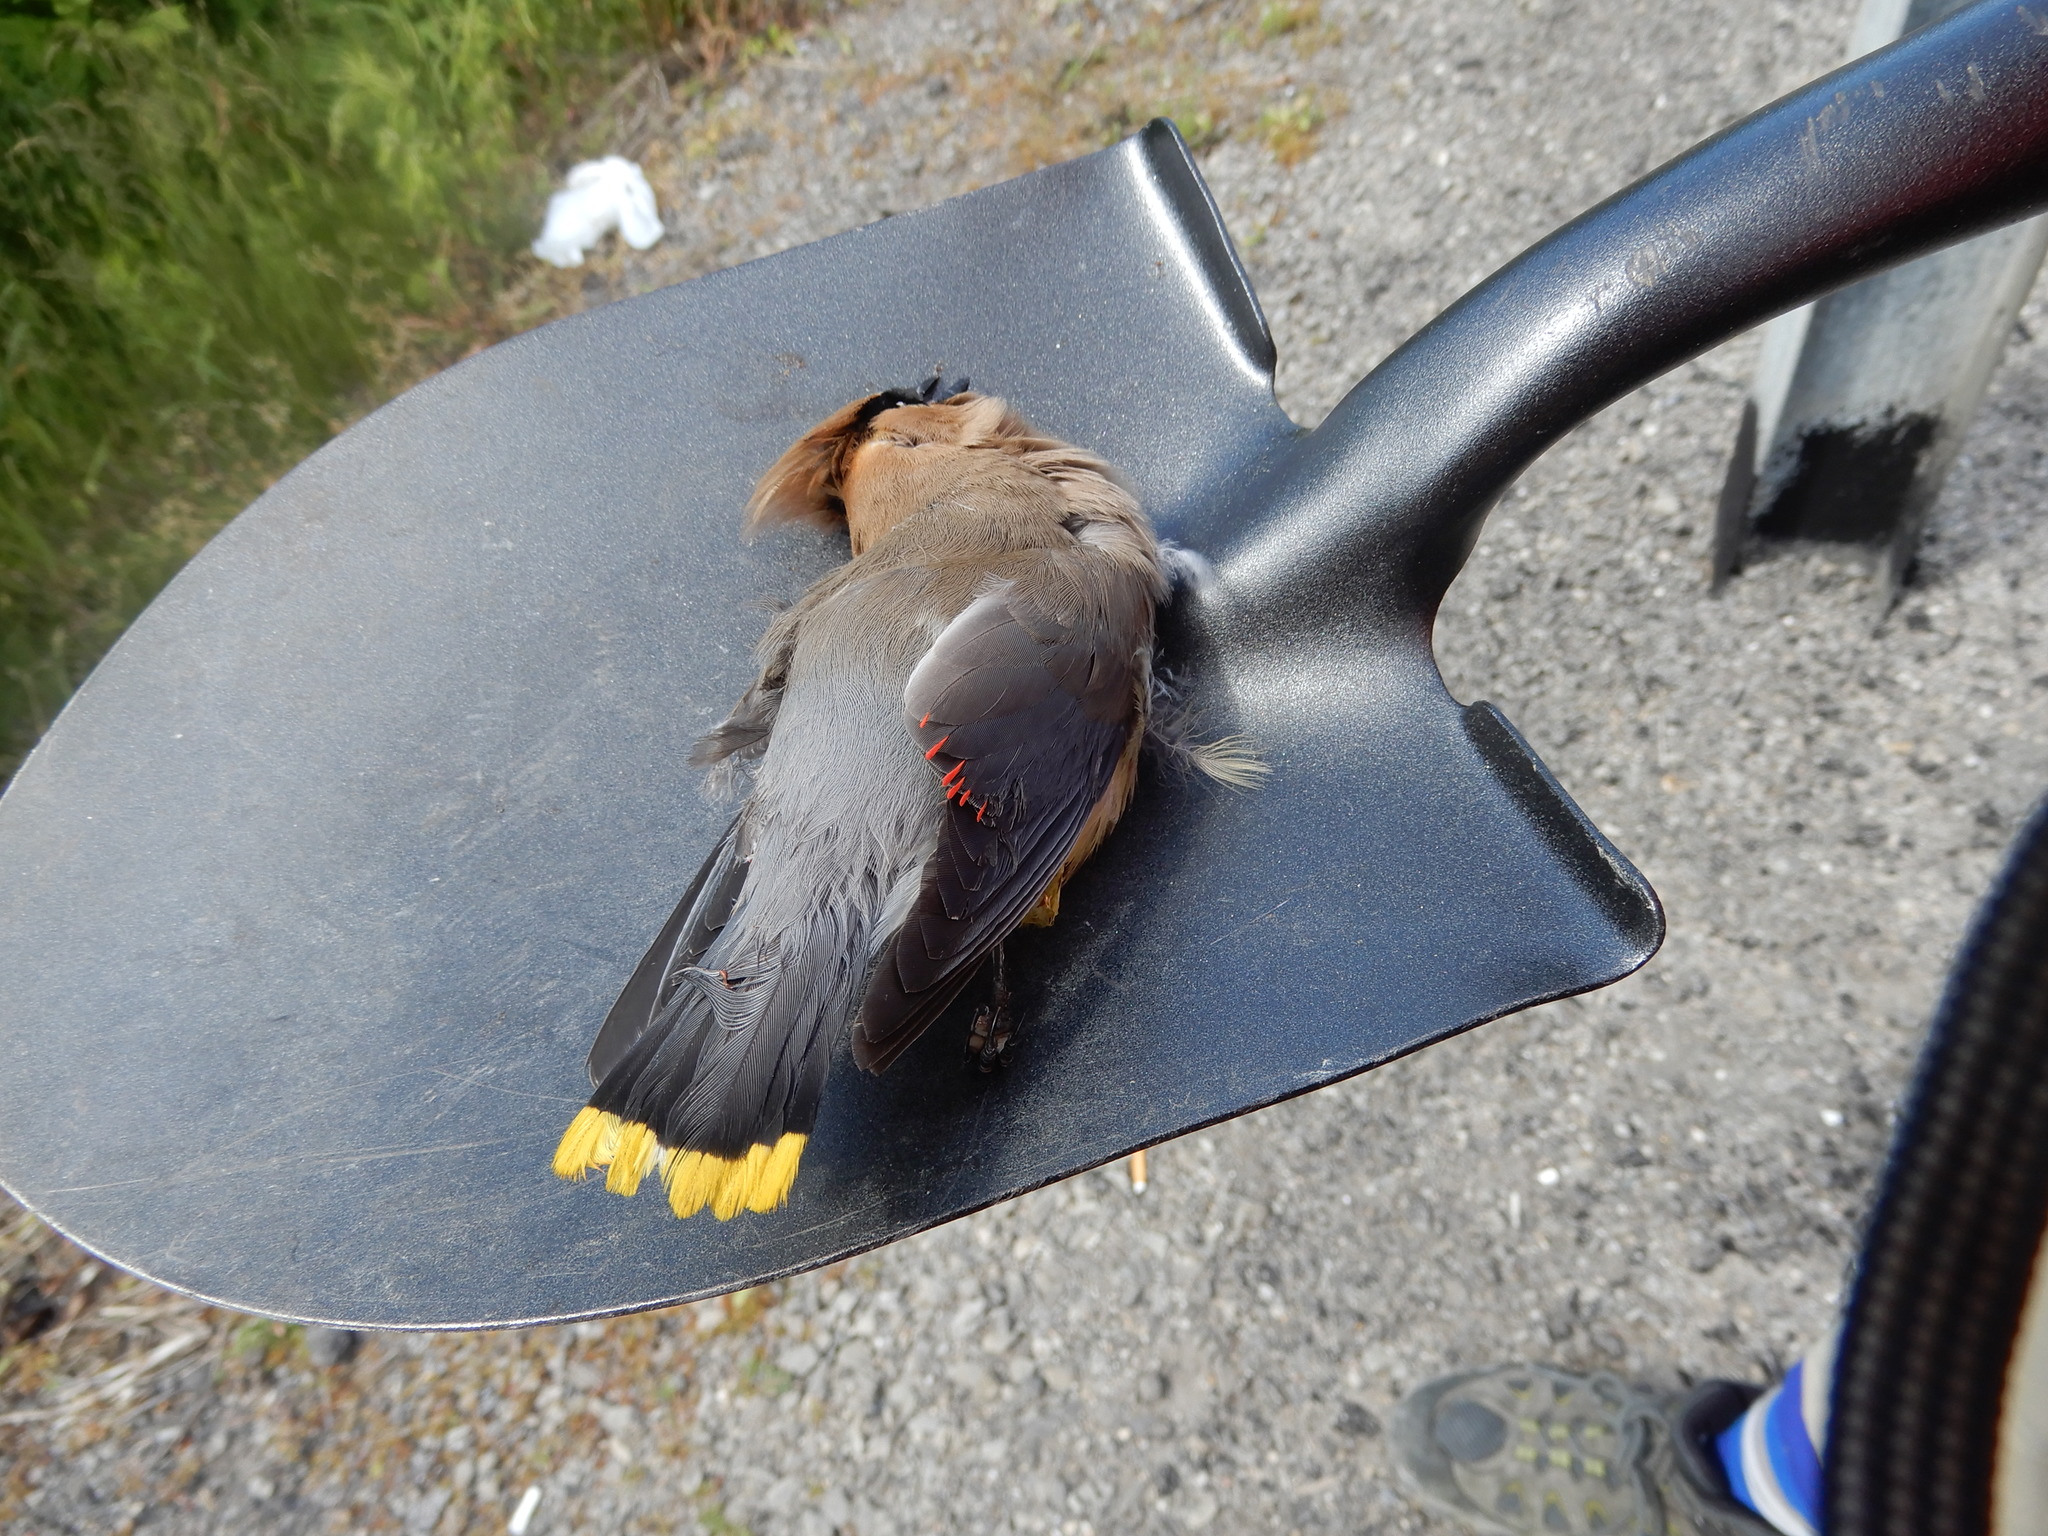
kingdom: Animalia
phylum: Chordata
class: Aves
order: Passeriformes
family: Bombycillidae
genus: Bombycilla
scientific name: Bombycilla cedrorum
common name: Cedar waxwing
